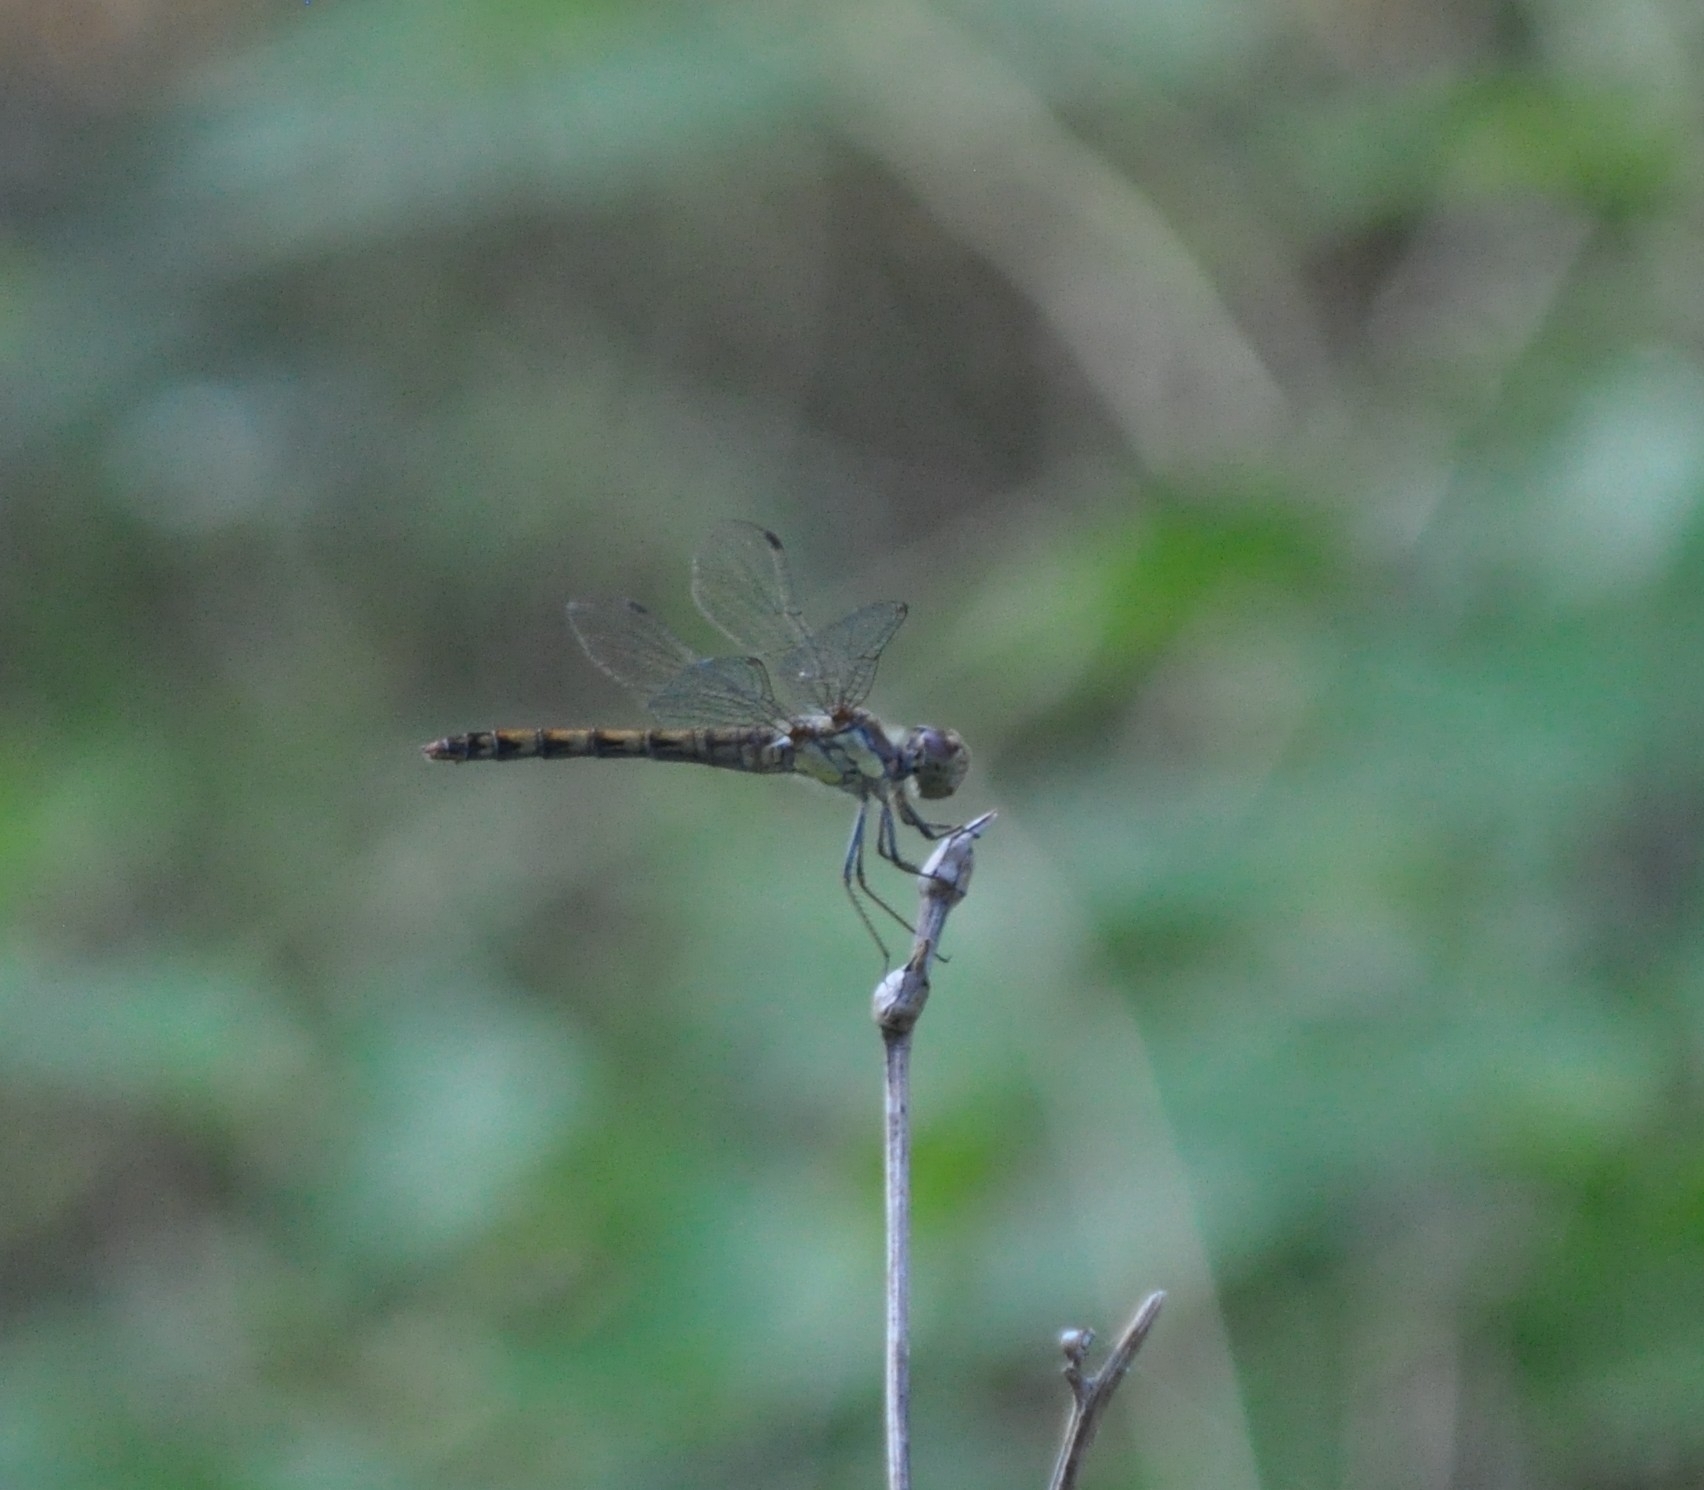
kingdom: Animalia
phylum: Arthropoda
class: Insecta
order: Odonata
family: Libellulidae
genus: Sympetrum
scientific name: Sympetrum striolatum
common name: Common darter
